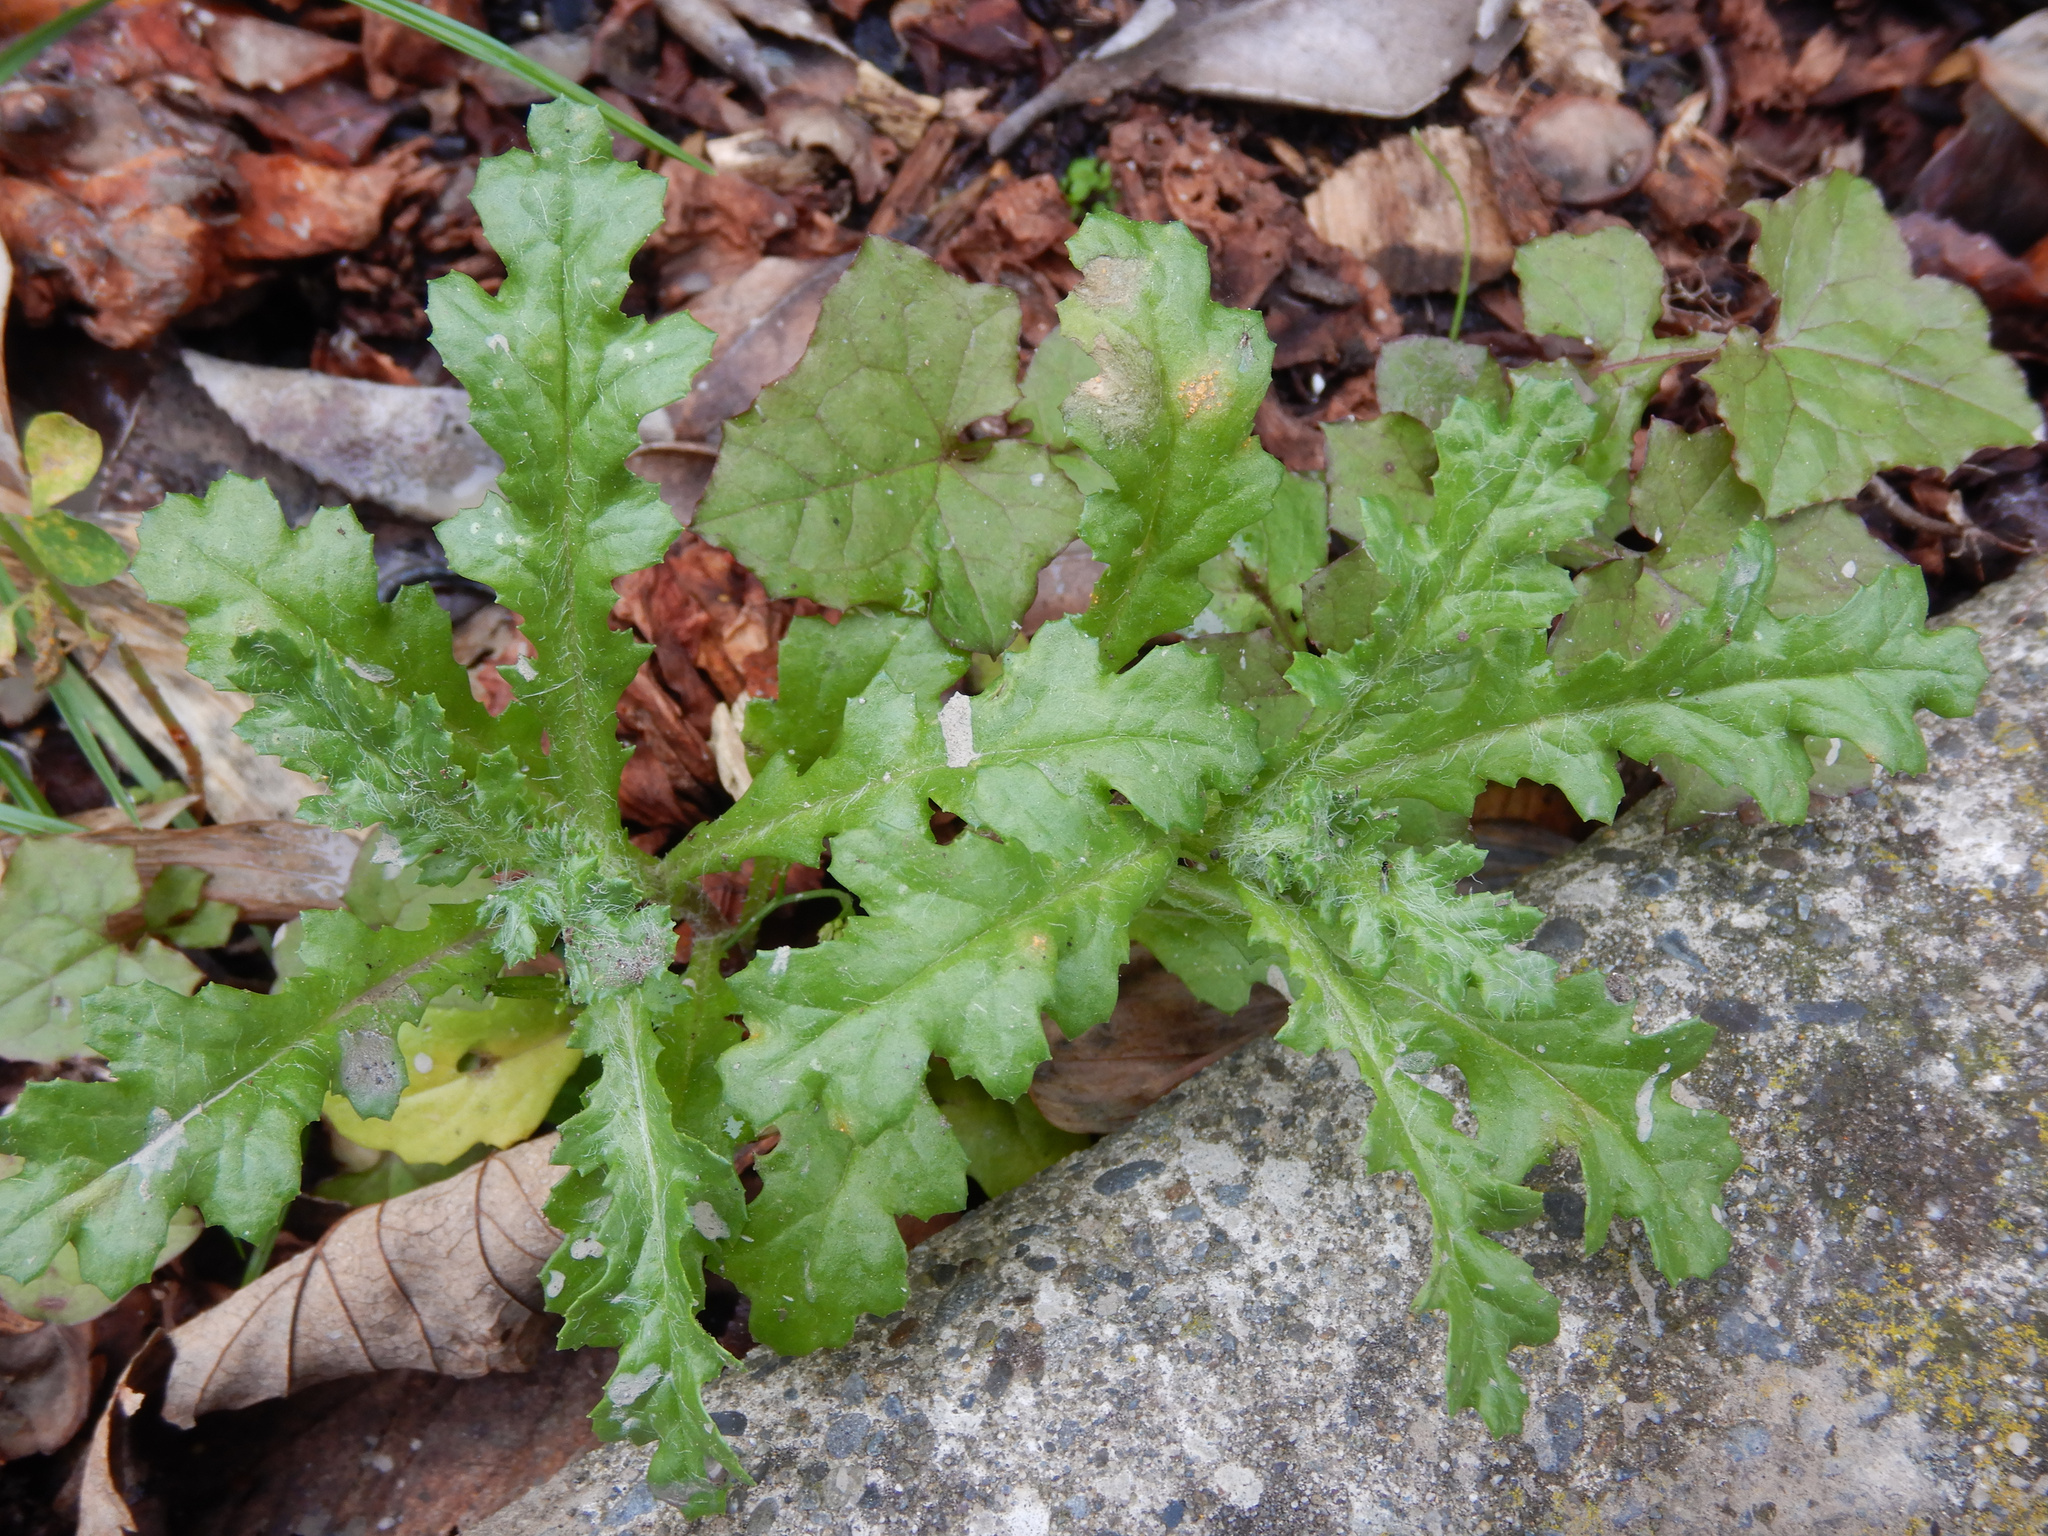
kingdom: Plantae
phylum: Tracheophyta
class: Magnoliopsida
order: Asterales
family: Asteraceae
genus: Senecio
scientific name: Senecio vulgaris
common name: Old-man-in-the-spring
